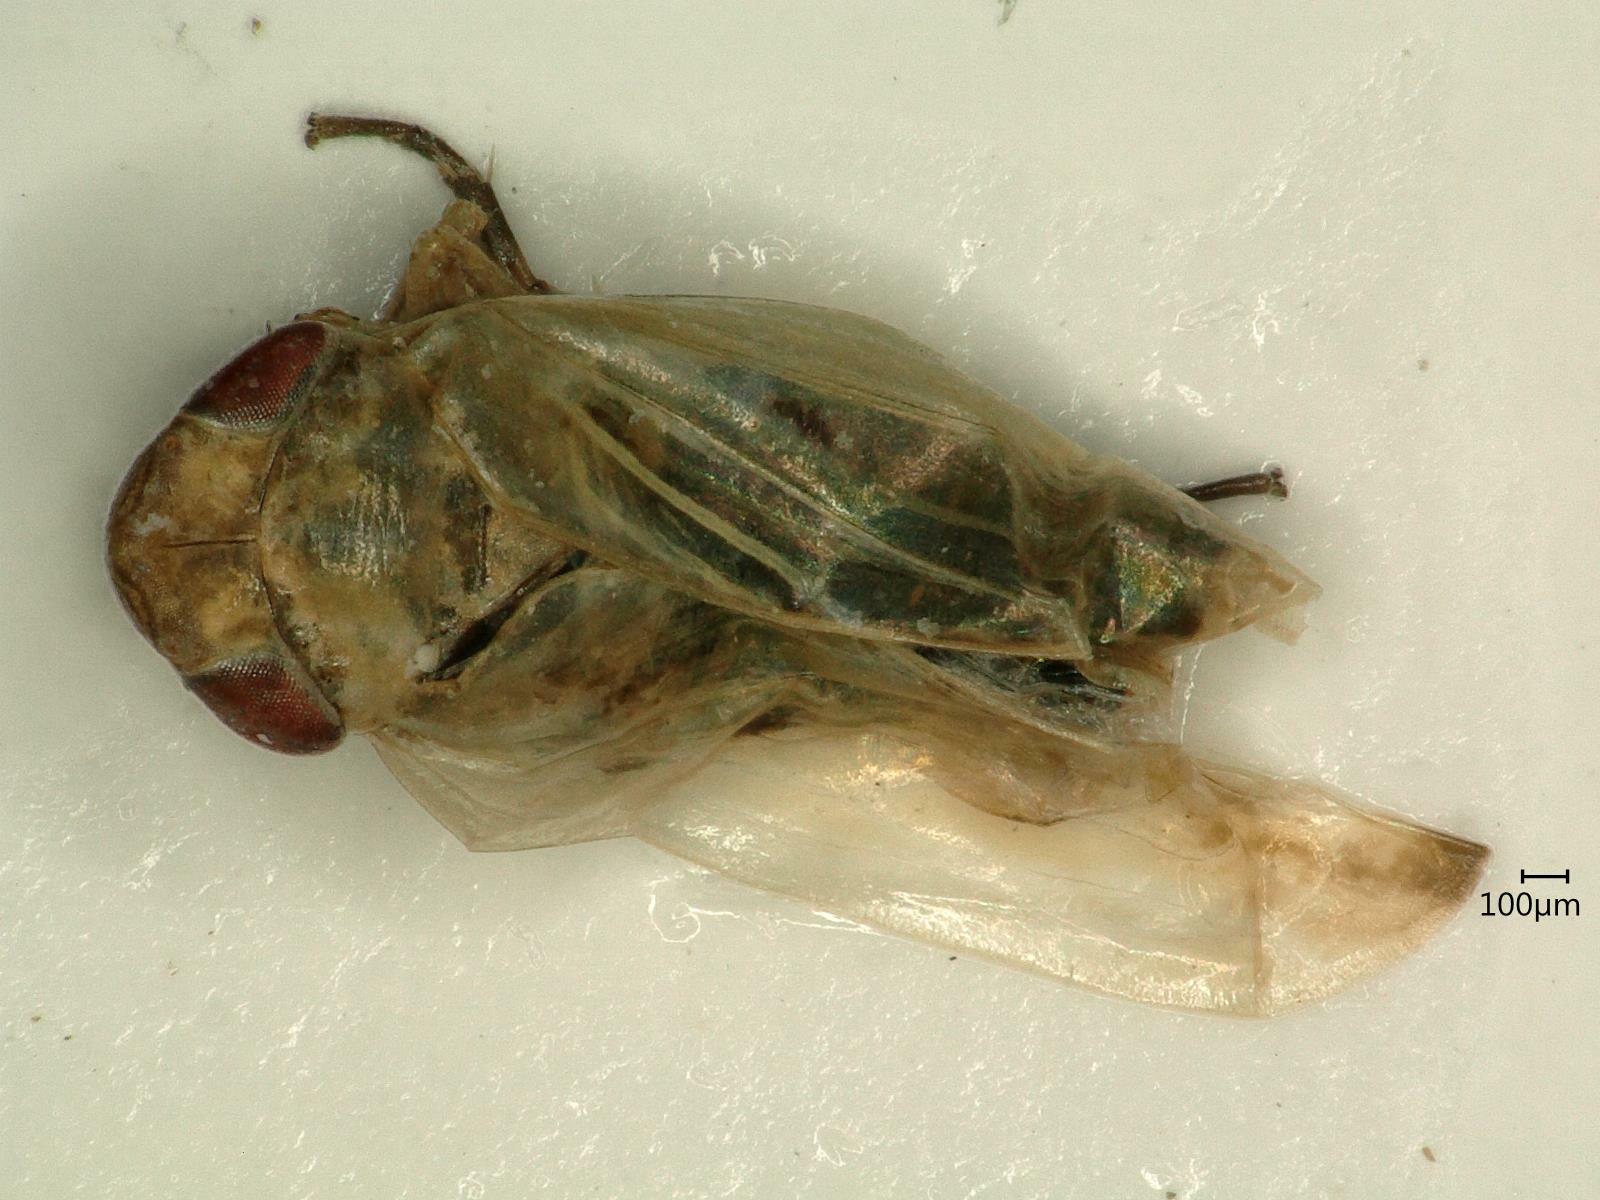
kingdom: Animalia
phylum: Arthropoda
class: Insecta
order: Hemiptera
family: Cicadellidae
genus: Psammotettix
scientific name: Psammotettix confinis
